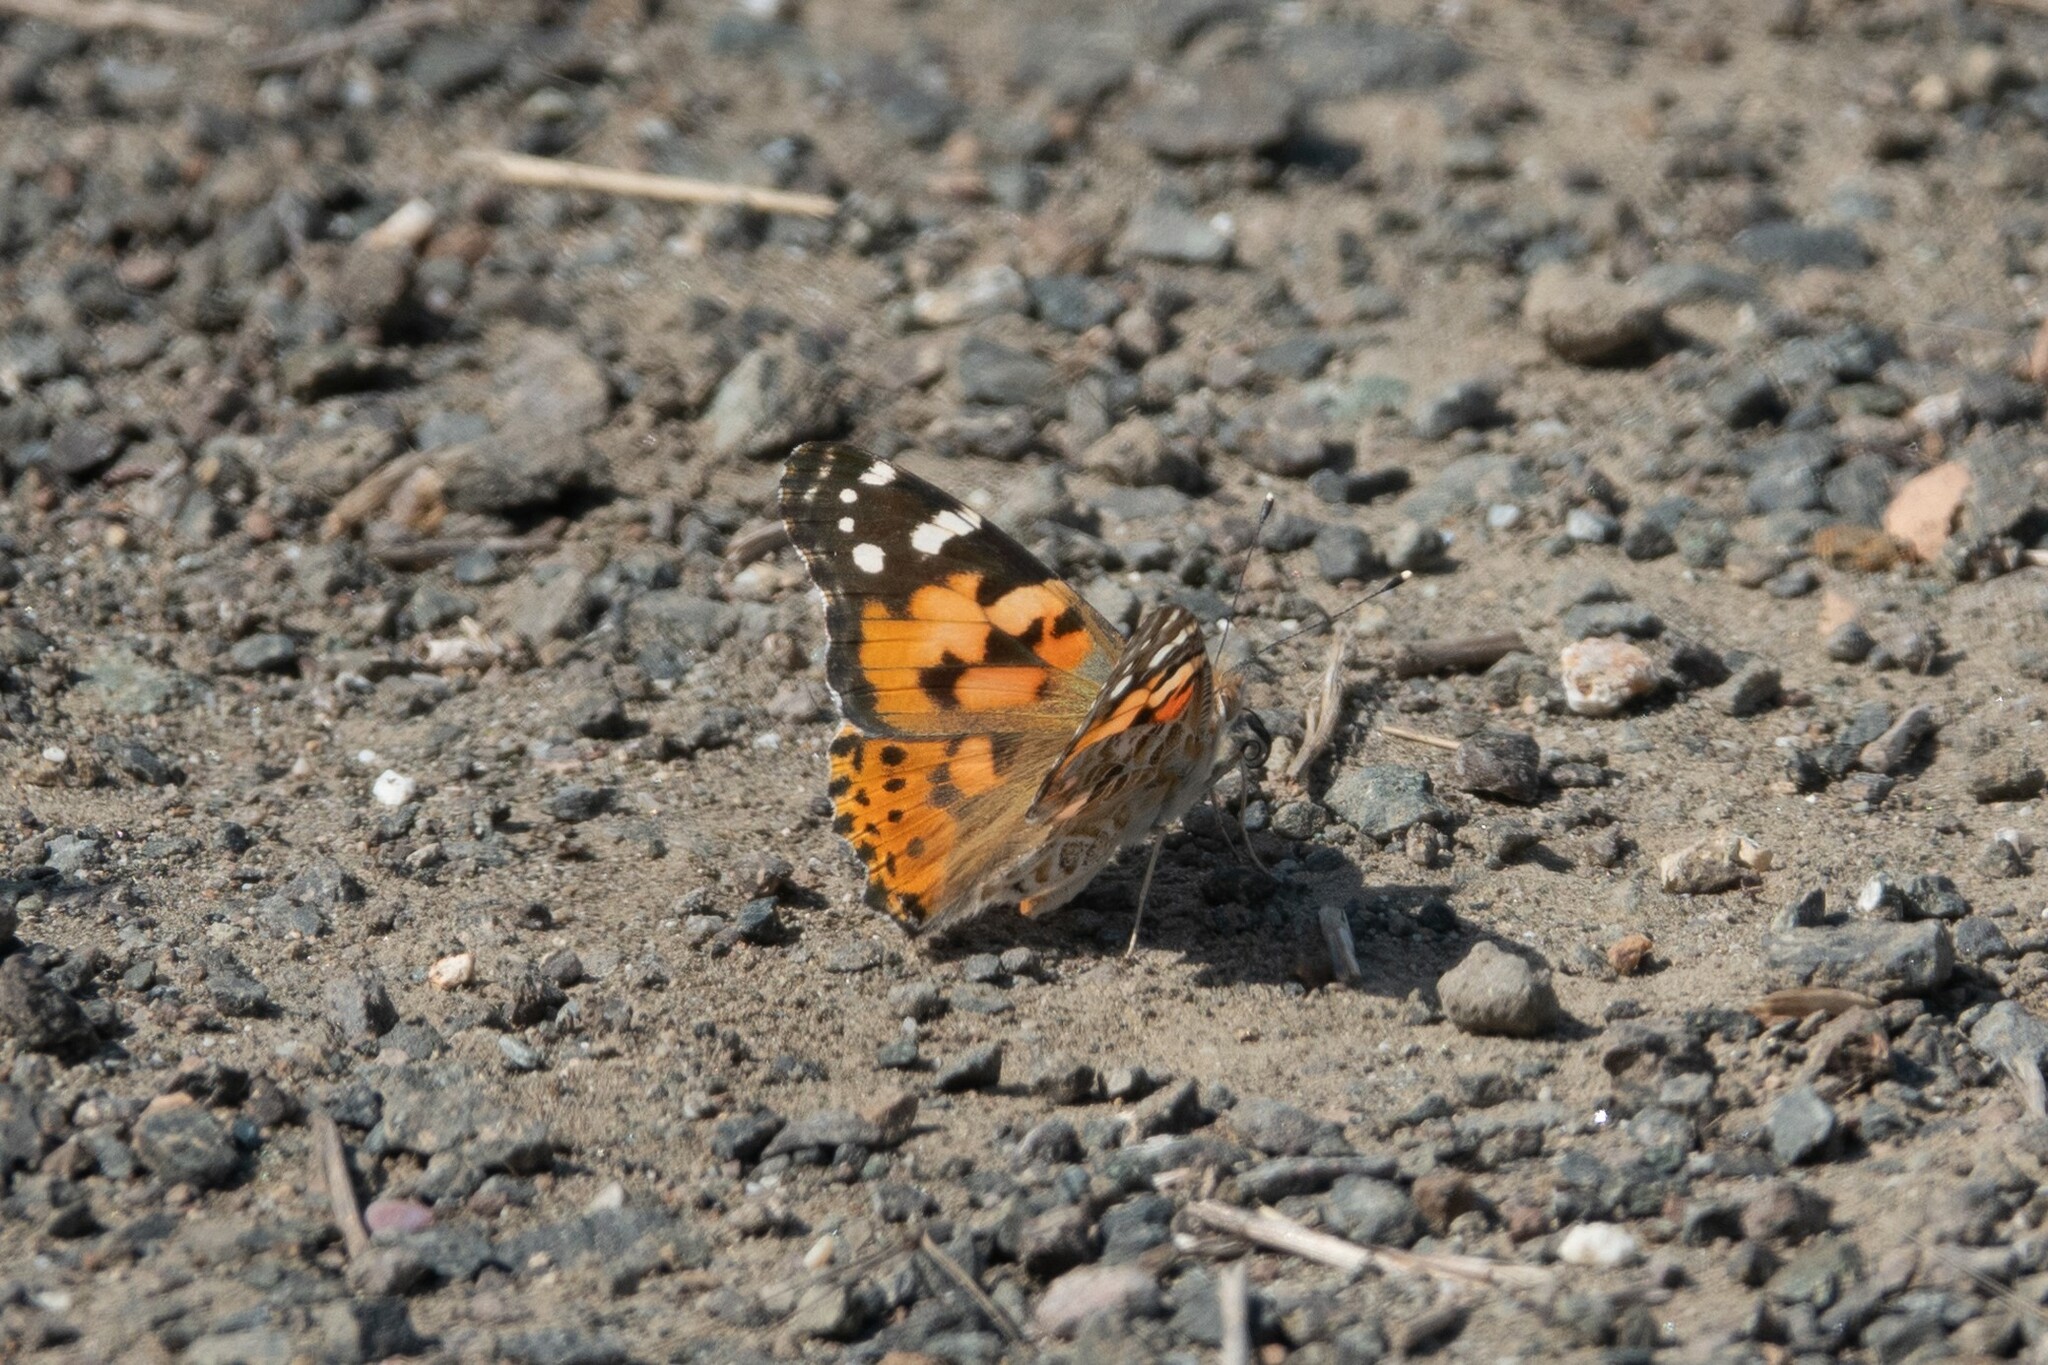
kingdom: Animalia
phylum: Arthropoda
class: Insecta
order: Lepidoptera
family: Nymphalidae
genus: Vanessa
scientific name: Vanessa cardui
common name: Painted lady
